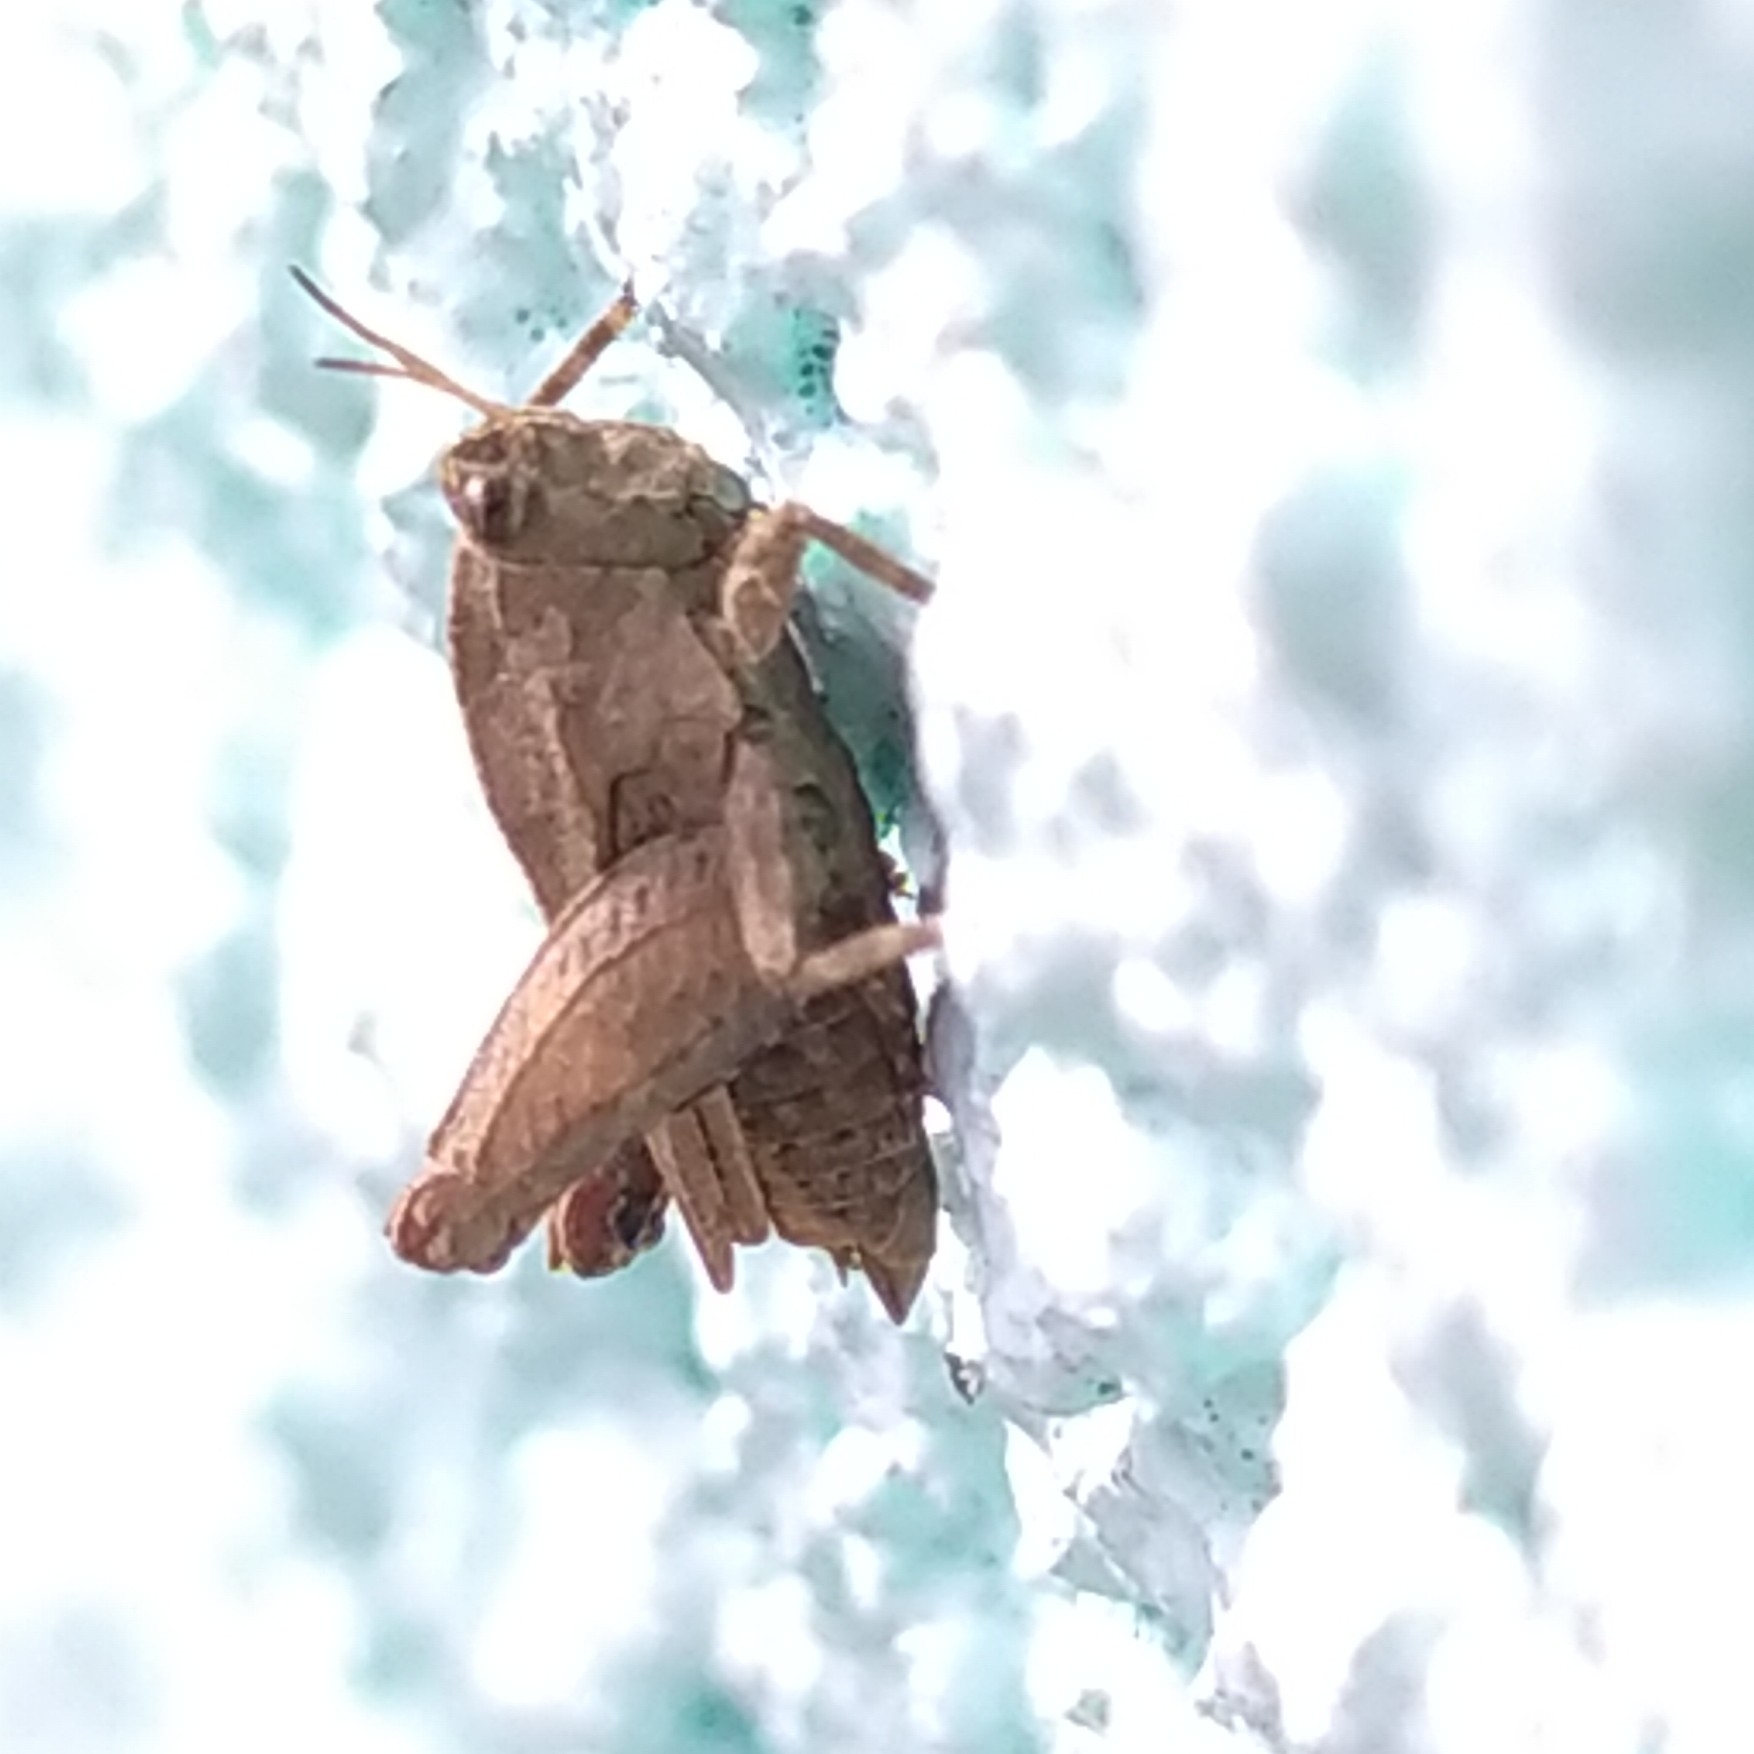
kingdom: Animalia
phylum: Arthropoda
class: Insecta
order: Orthoptera
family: Tetrigidae
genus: Tetrix
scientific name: Tetrix tenuicornis
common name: Long-horned groundhopper
